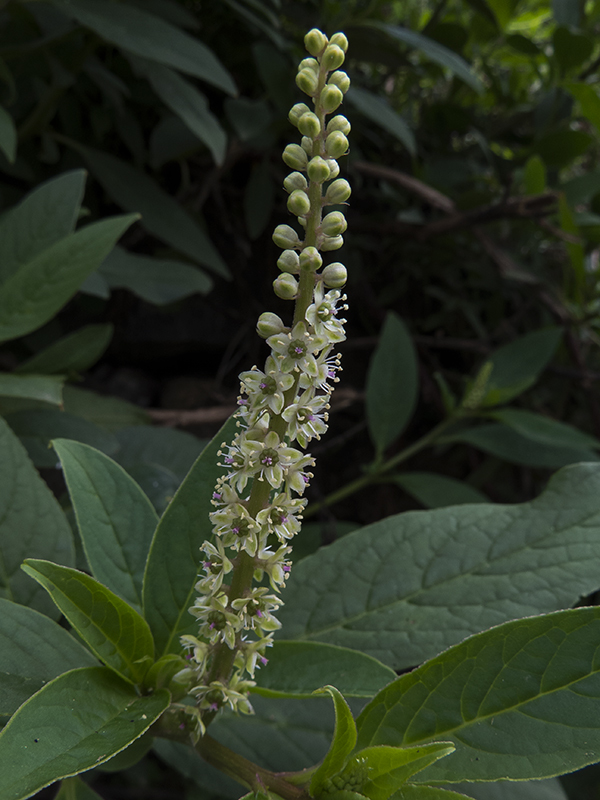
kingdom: Plantae
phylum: Tracheophyta
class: Magnoliopsida
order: Caryophyllales
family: Phytolaccaceae
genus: Phytolacca
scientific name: Phytolacca icosandra
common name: Button pokeweed
